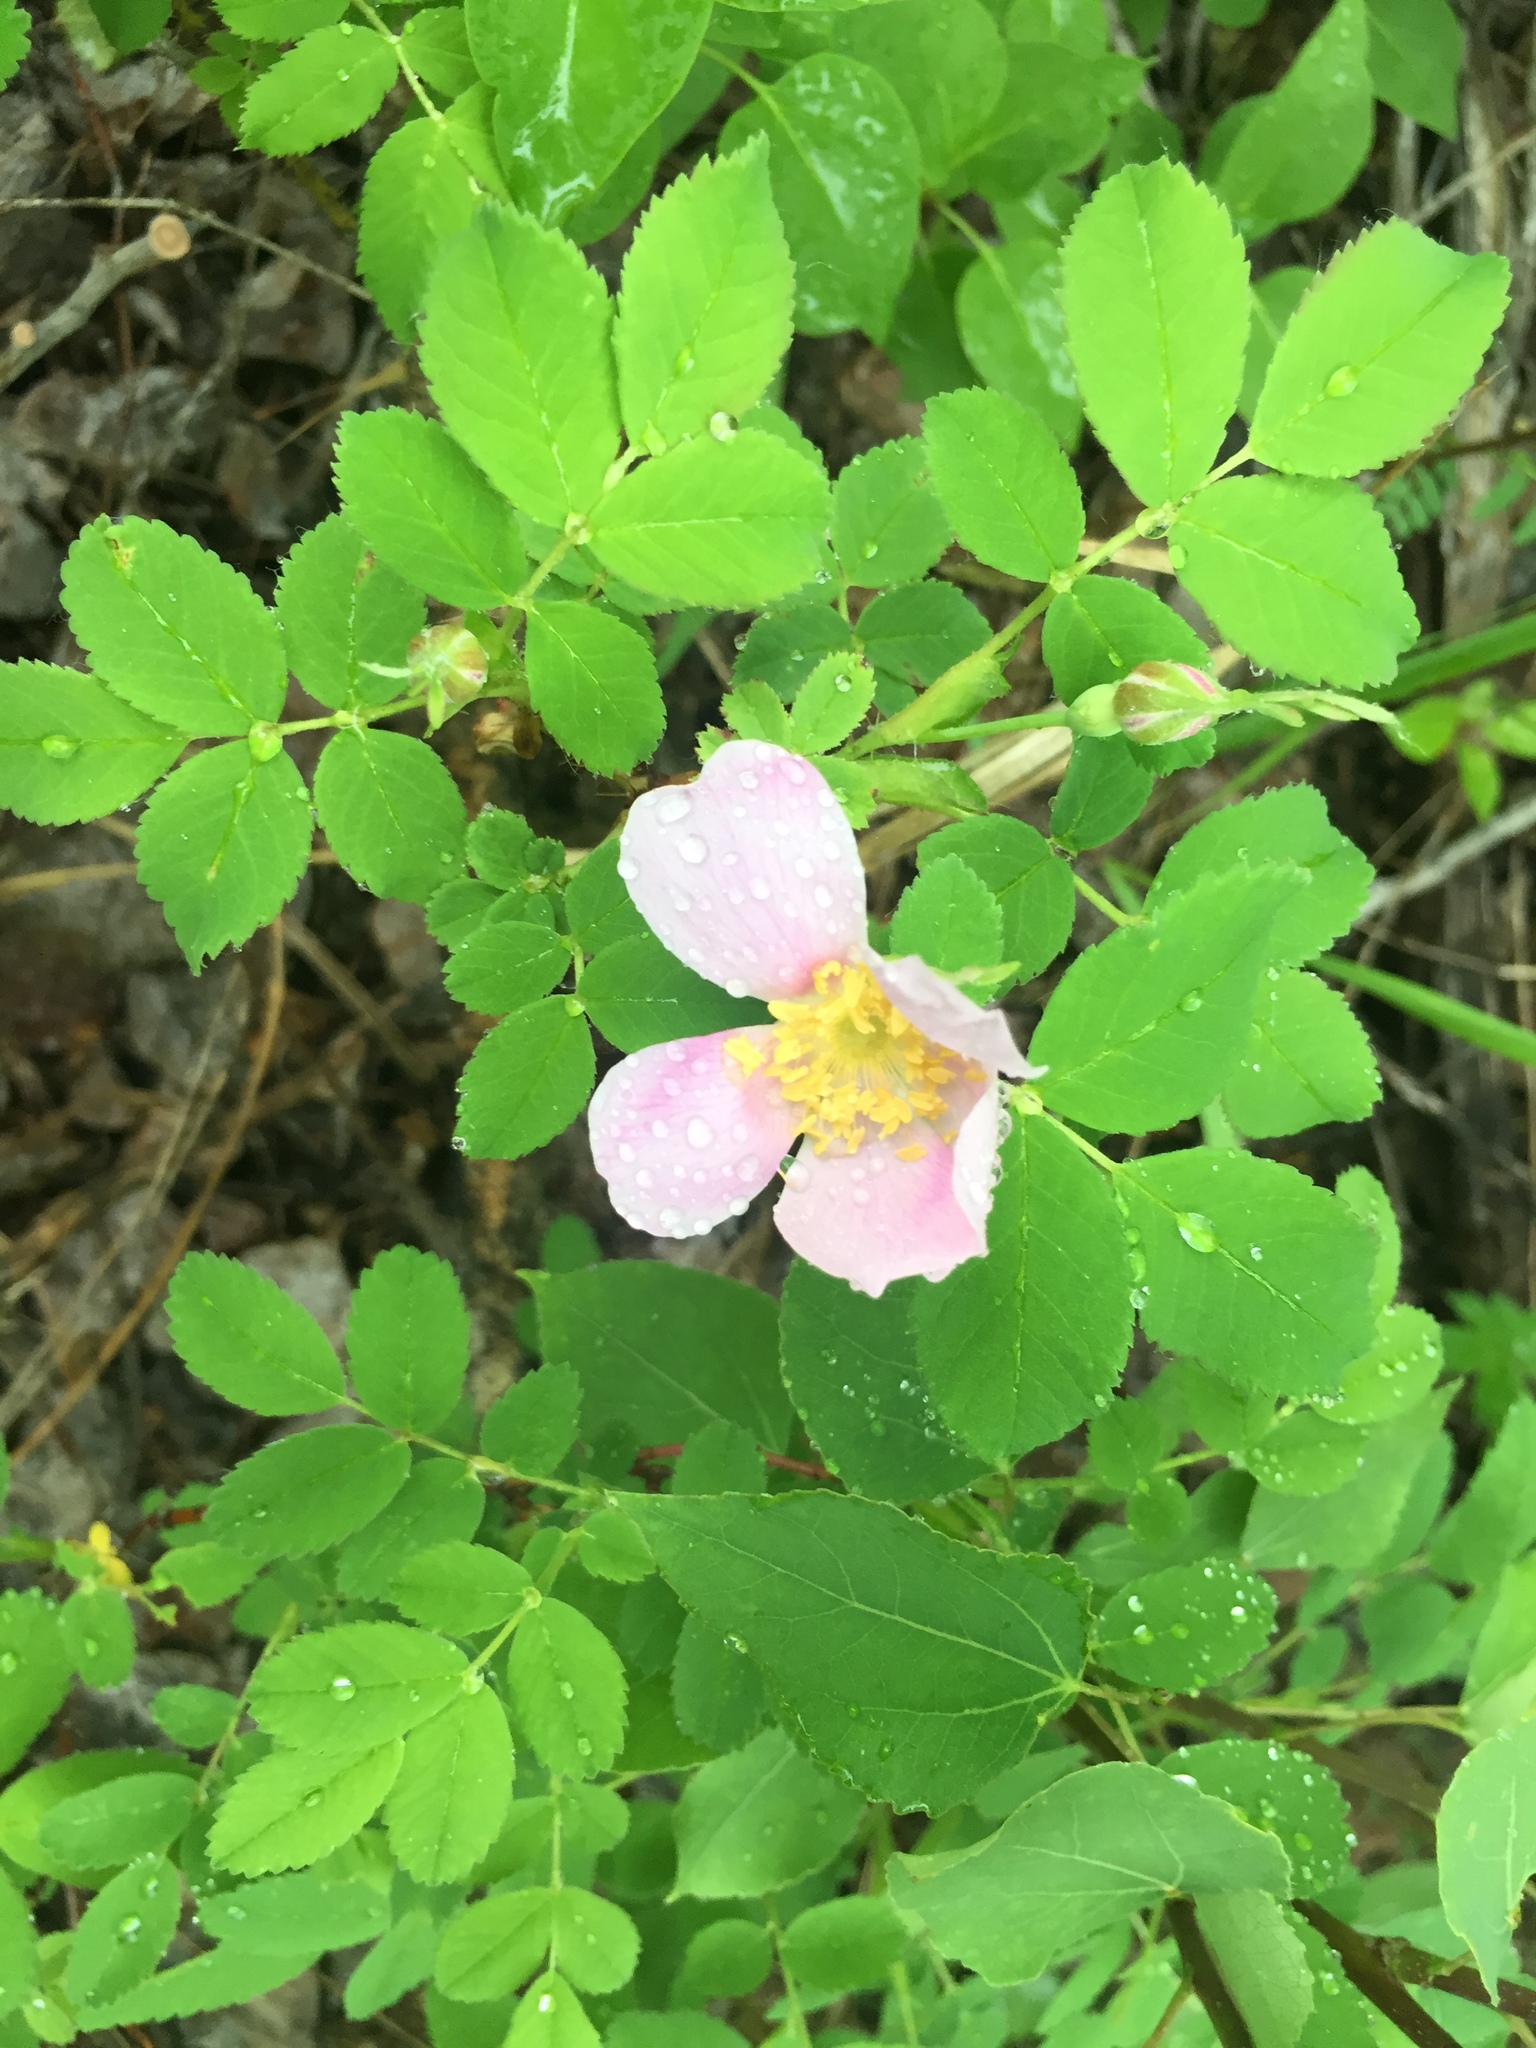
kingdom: Plantae
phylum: Tracheophyta
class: Magnoliopsida
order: Rosales
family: Rosaceae
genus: Rosa
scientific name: Rosa acicularis
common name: Prickly rose
